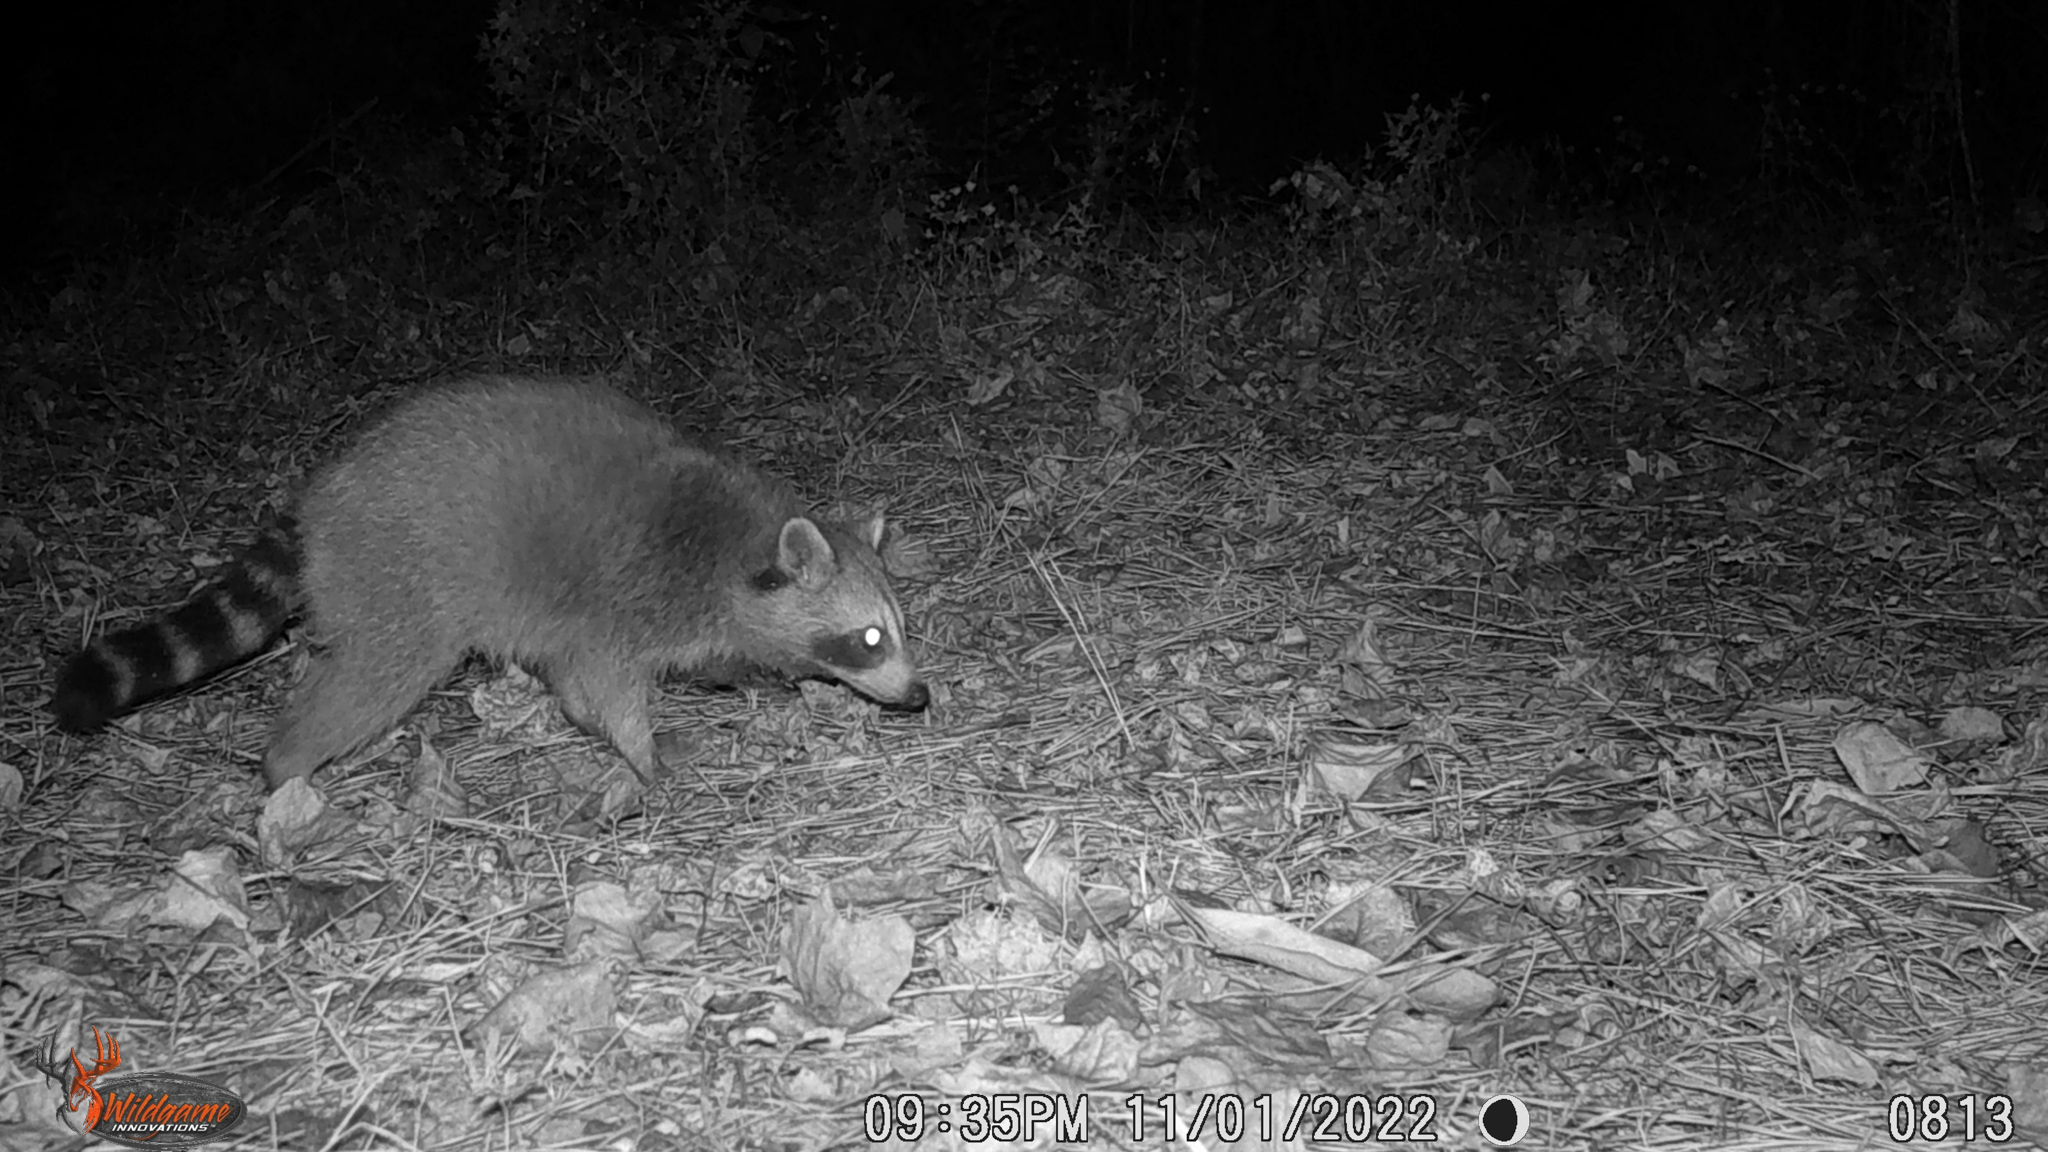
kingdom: Animalia
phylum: Chordata
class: Mammalia
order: Carnivora
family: Procyonidae
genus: Procyon
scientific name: Procyon lotor
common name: Raccoon
